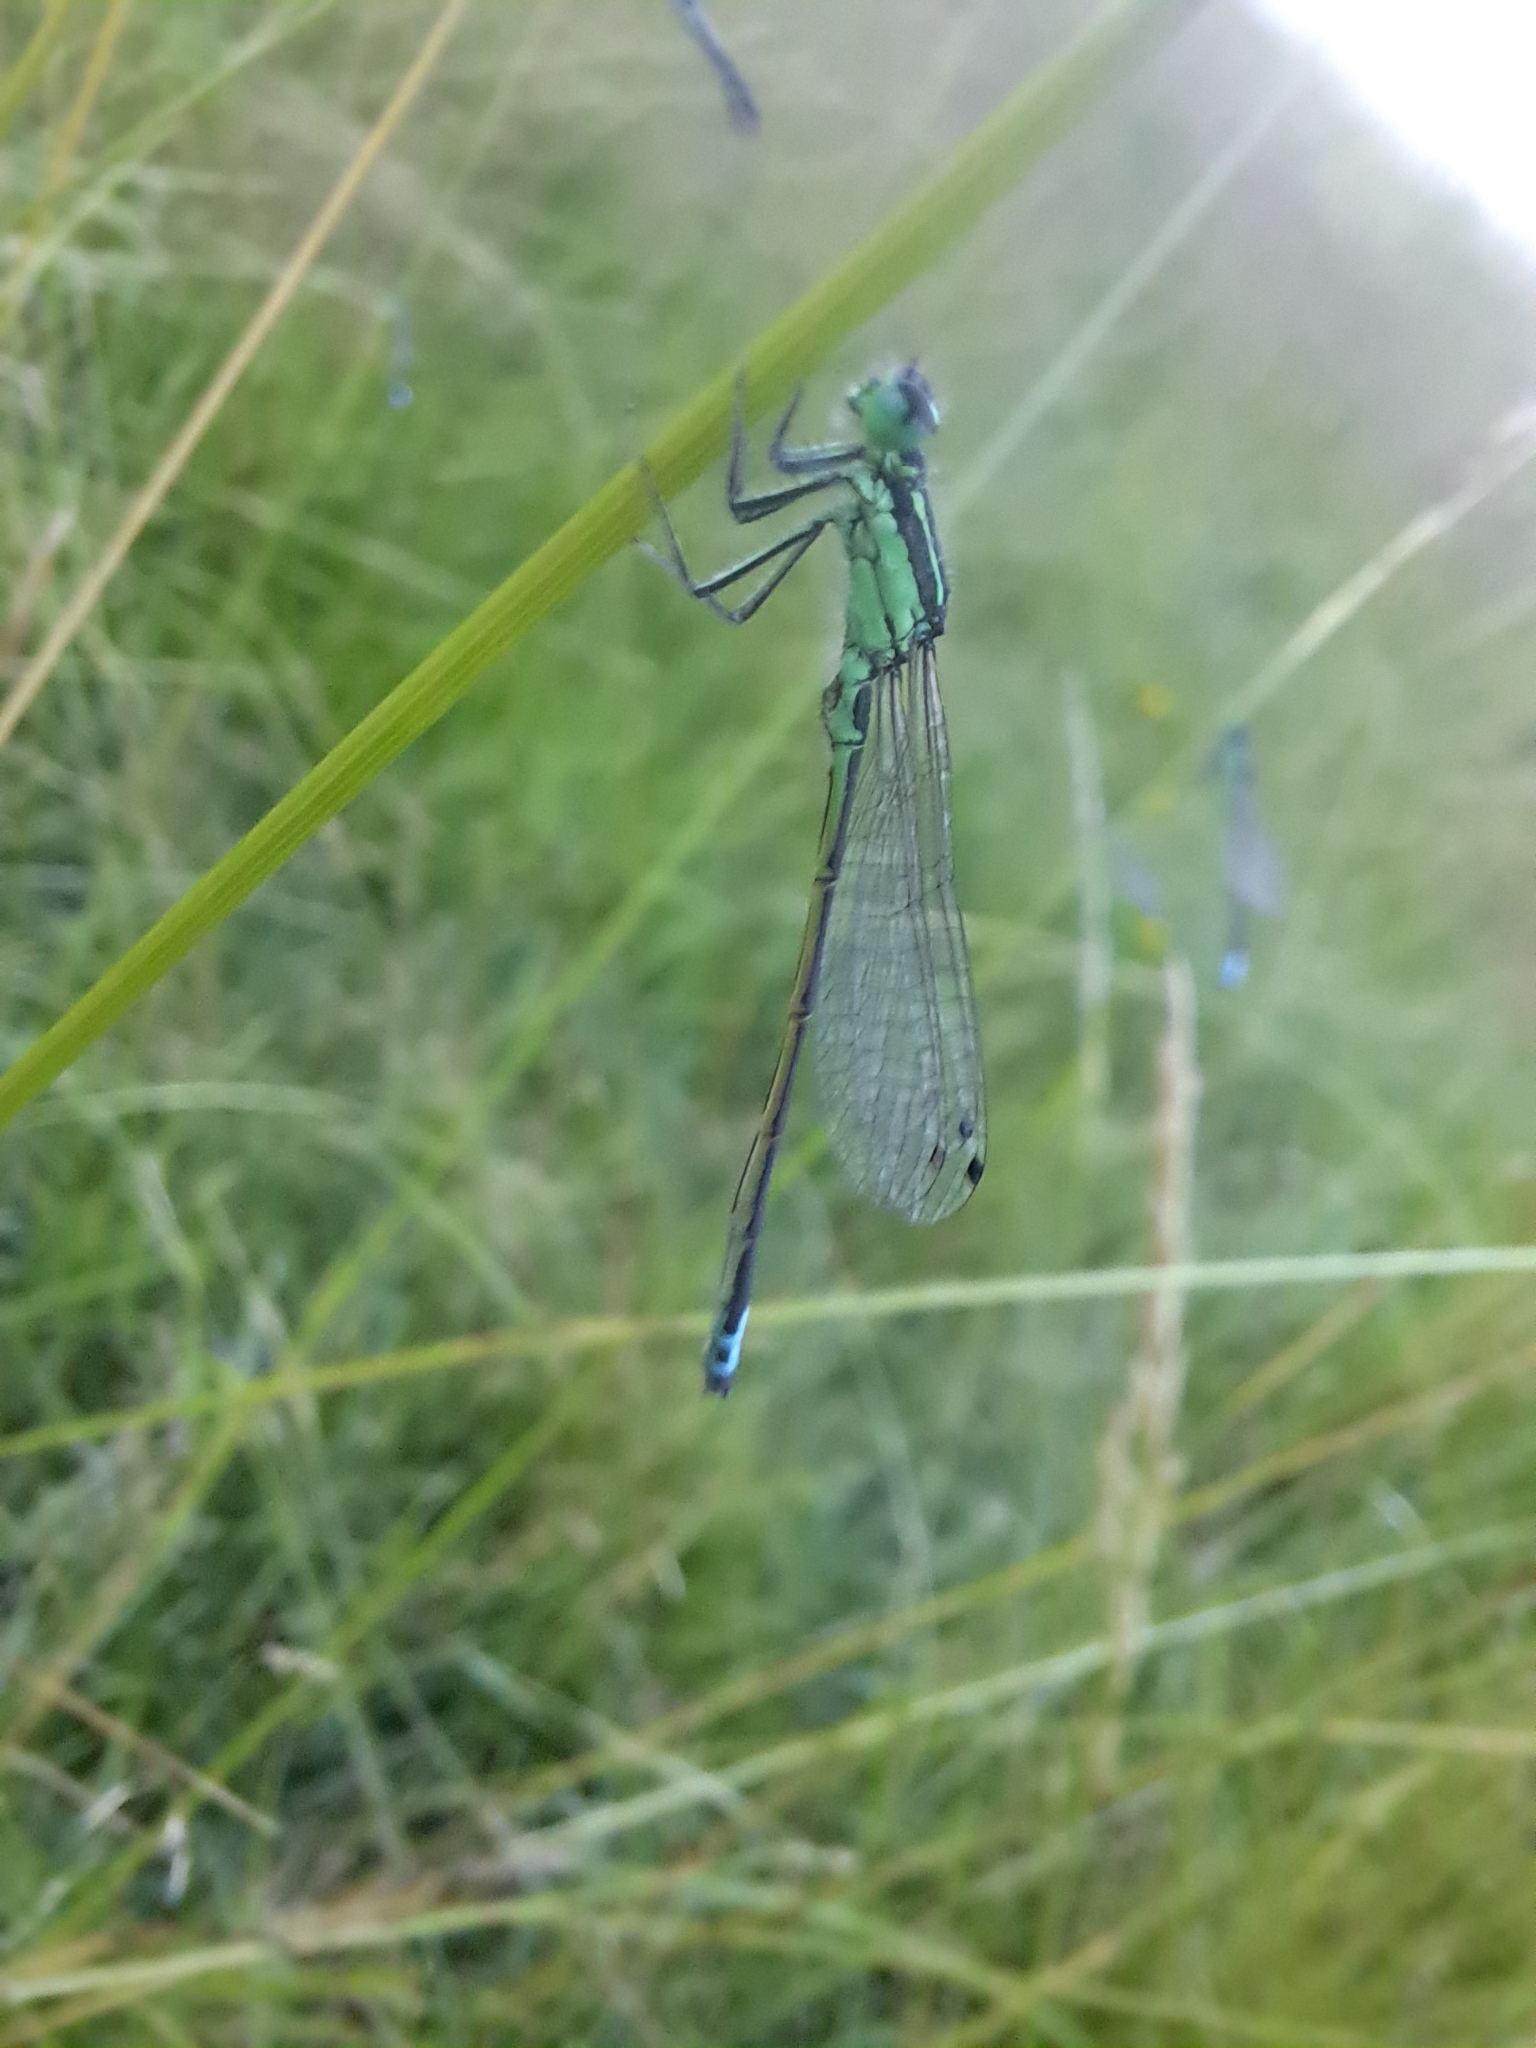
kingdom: Animalia
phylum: Arthropoda
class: Insecta
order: Odonata
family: Coenagrionidae
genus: Ischnura
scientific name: Ischnura verticalis
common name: Eastern forktail
